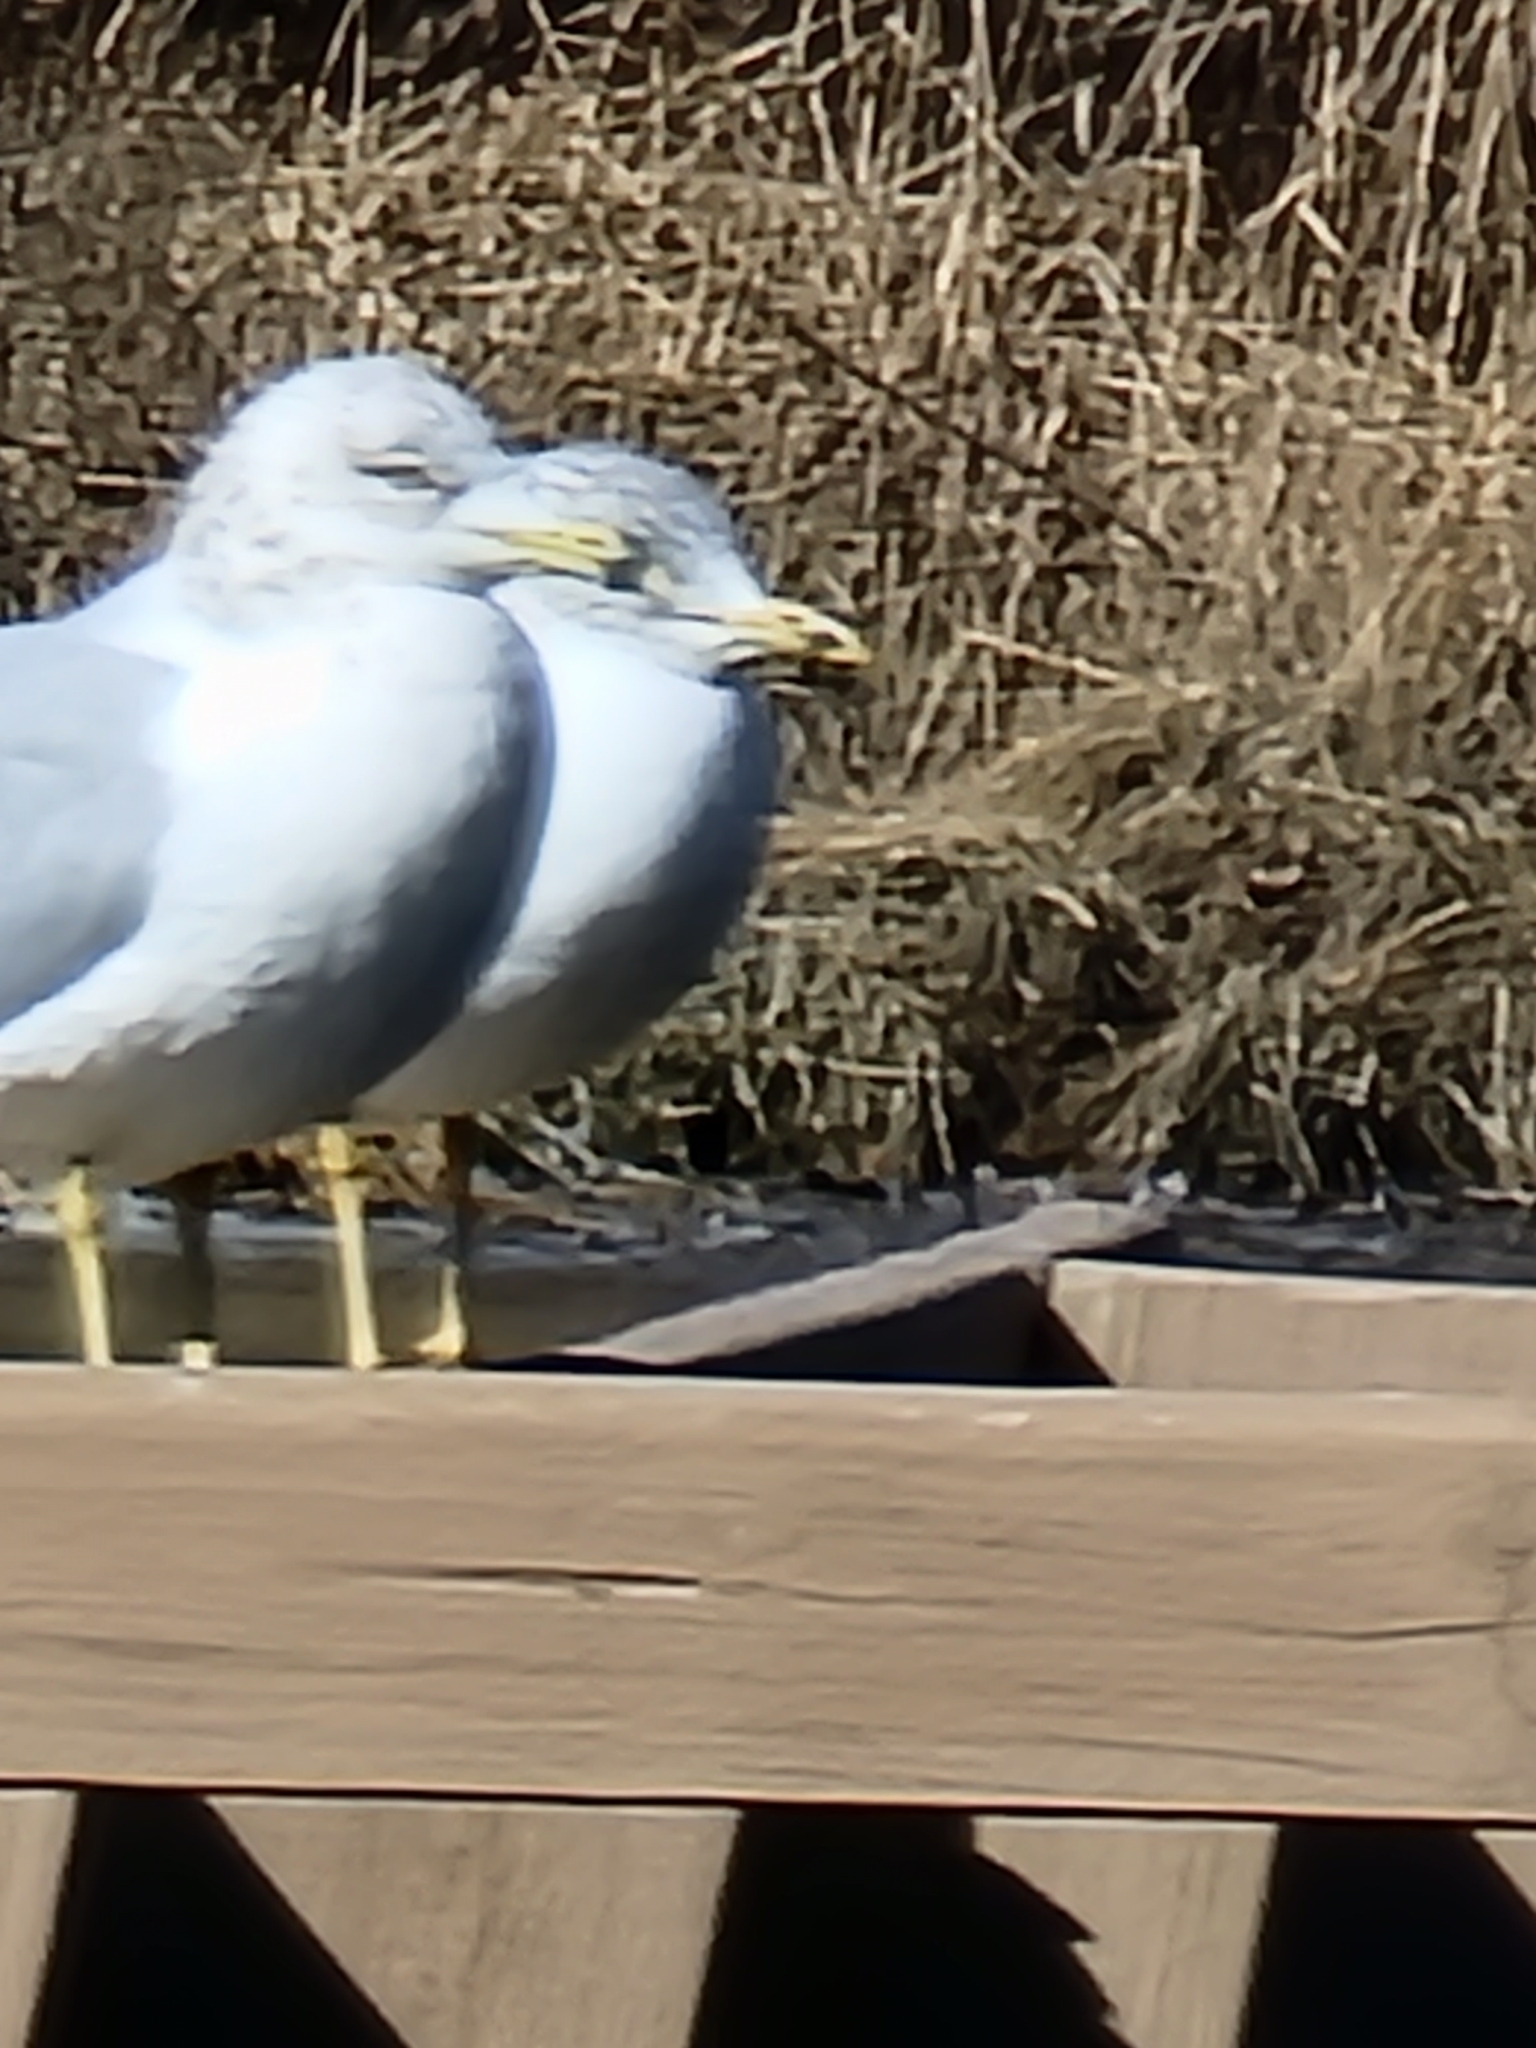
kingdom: Animalia
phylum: Chordata
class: Aves
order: Charadriiformes
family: Laridae
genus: Larus
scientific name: Larus delawarensis
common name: Ring-billed gull
